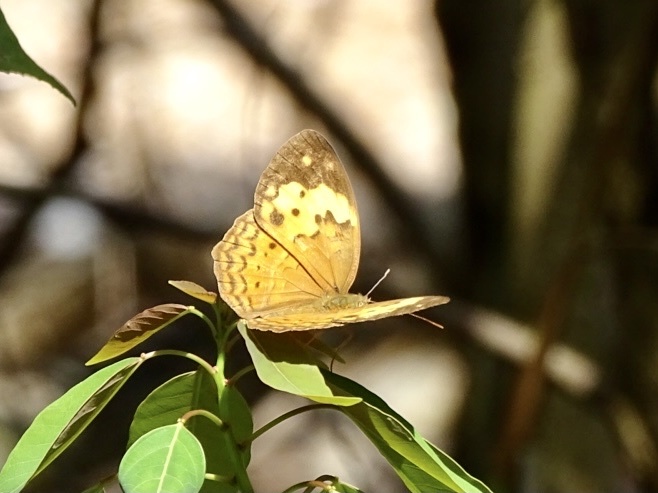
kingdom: Animalia
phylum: Arthropoda
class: Insecta
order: Lepidoptera
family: Nymphalidae
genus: Cupha
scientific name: Cupha erymanthis
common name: Rustic
